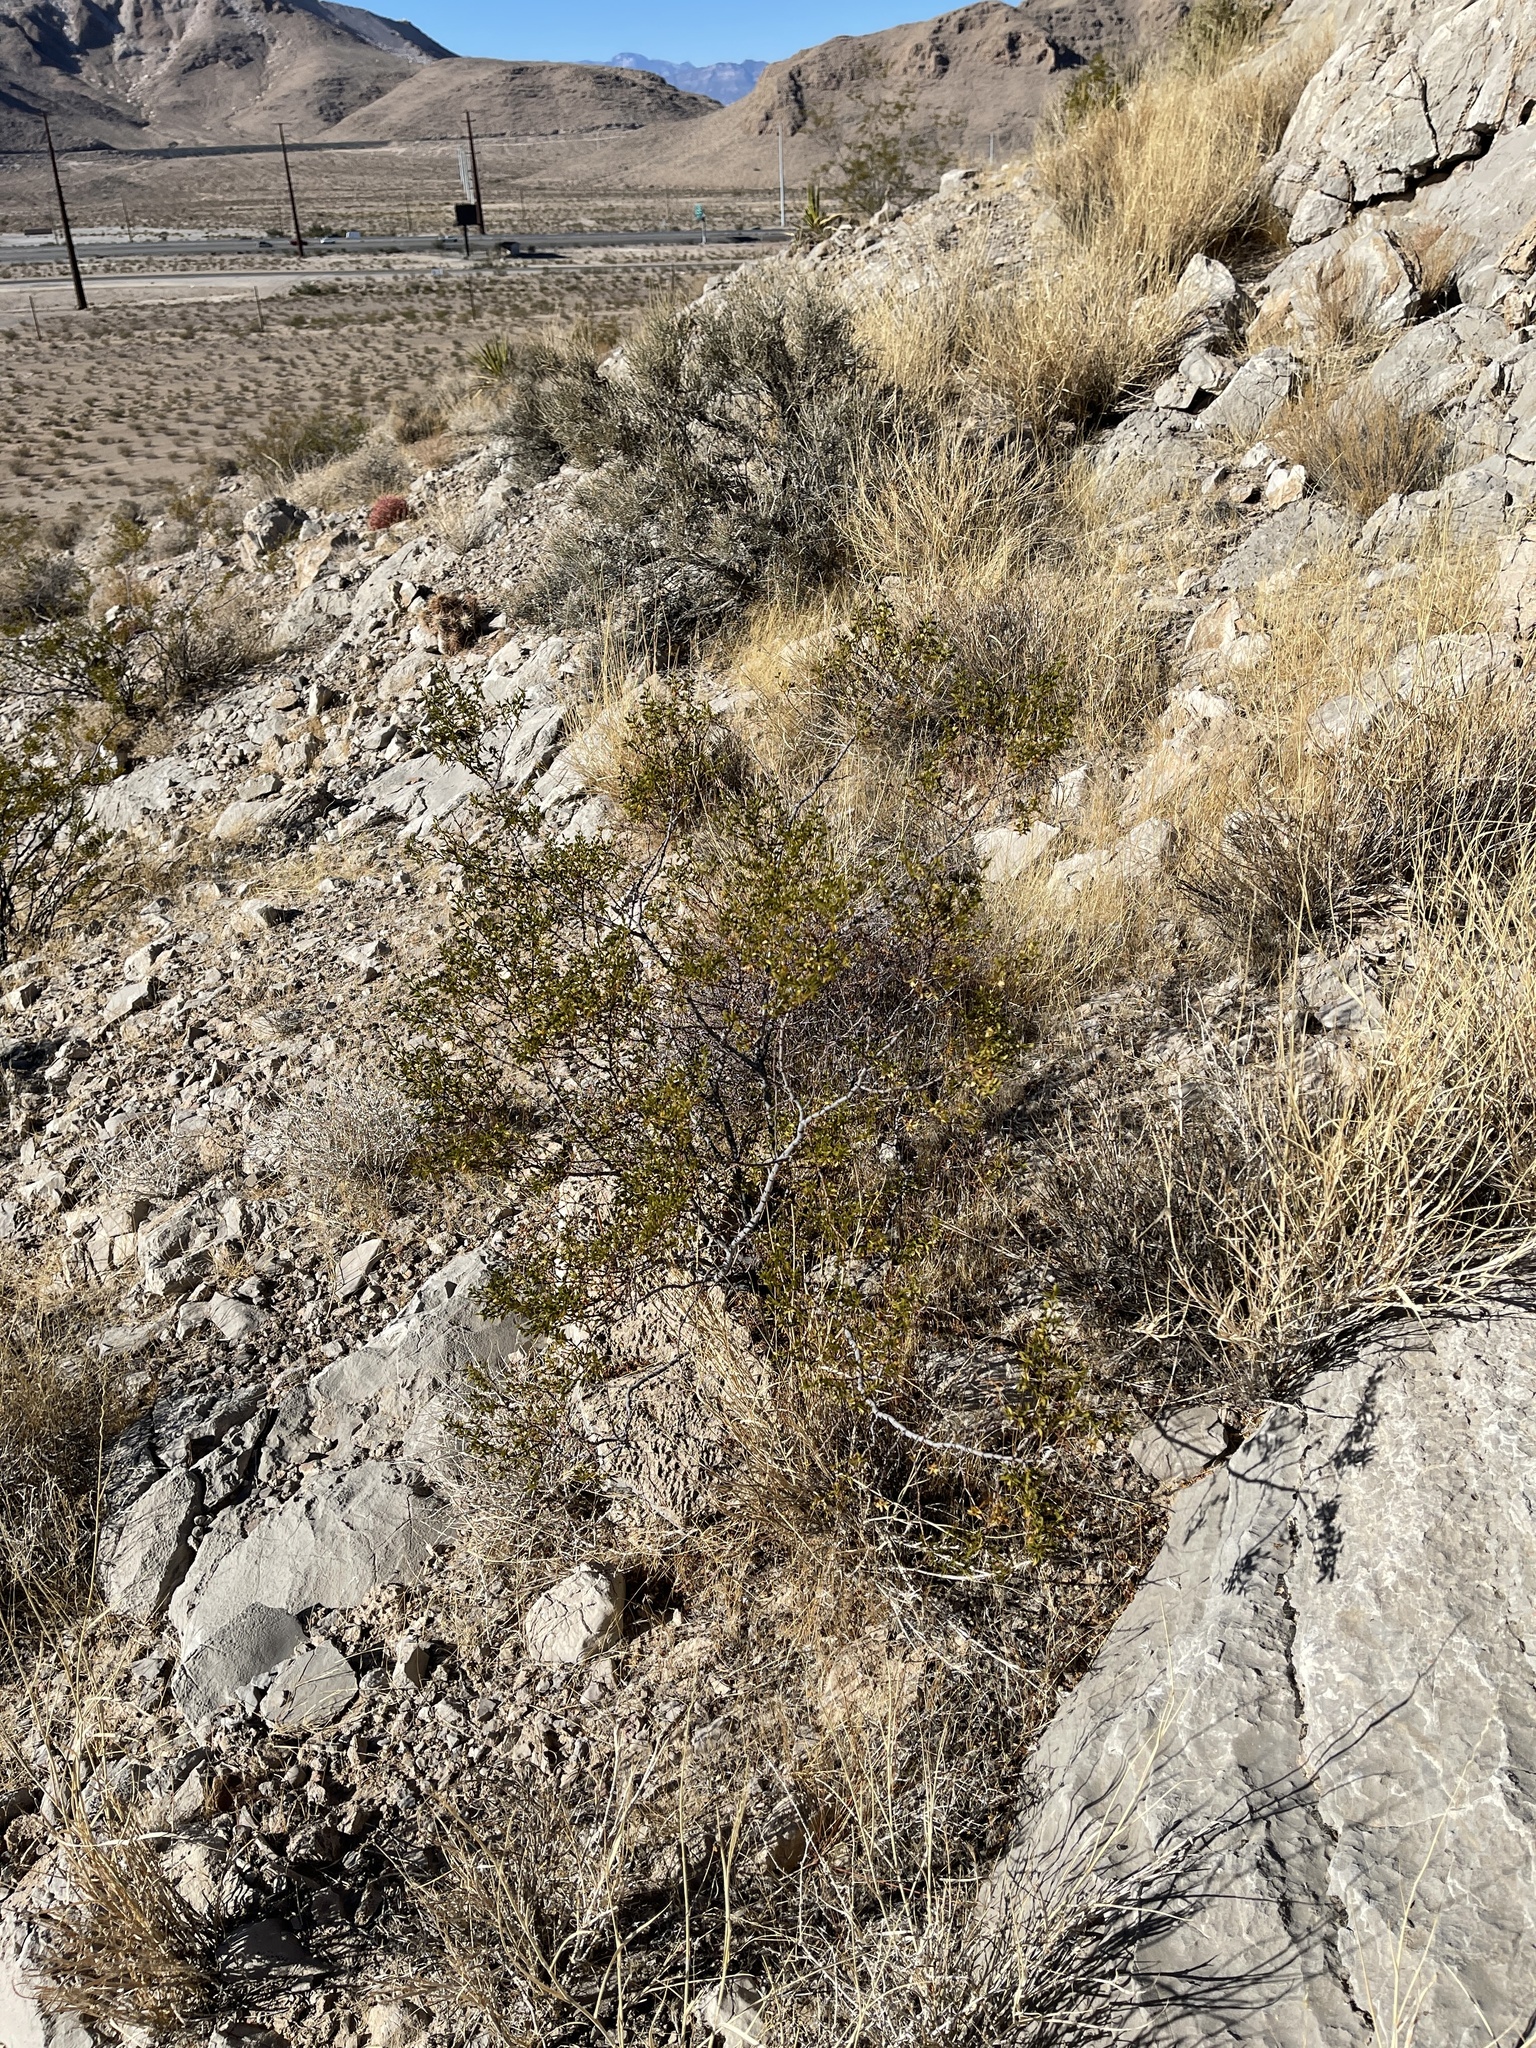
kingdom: Plantae
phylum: Tracheophyta
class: Magnoliopsida
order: Zygophyllales
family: Zygophyllaceae
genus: Larrea
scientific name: Larrea tridentata
